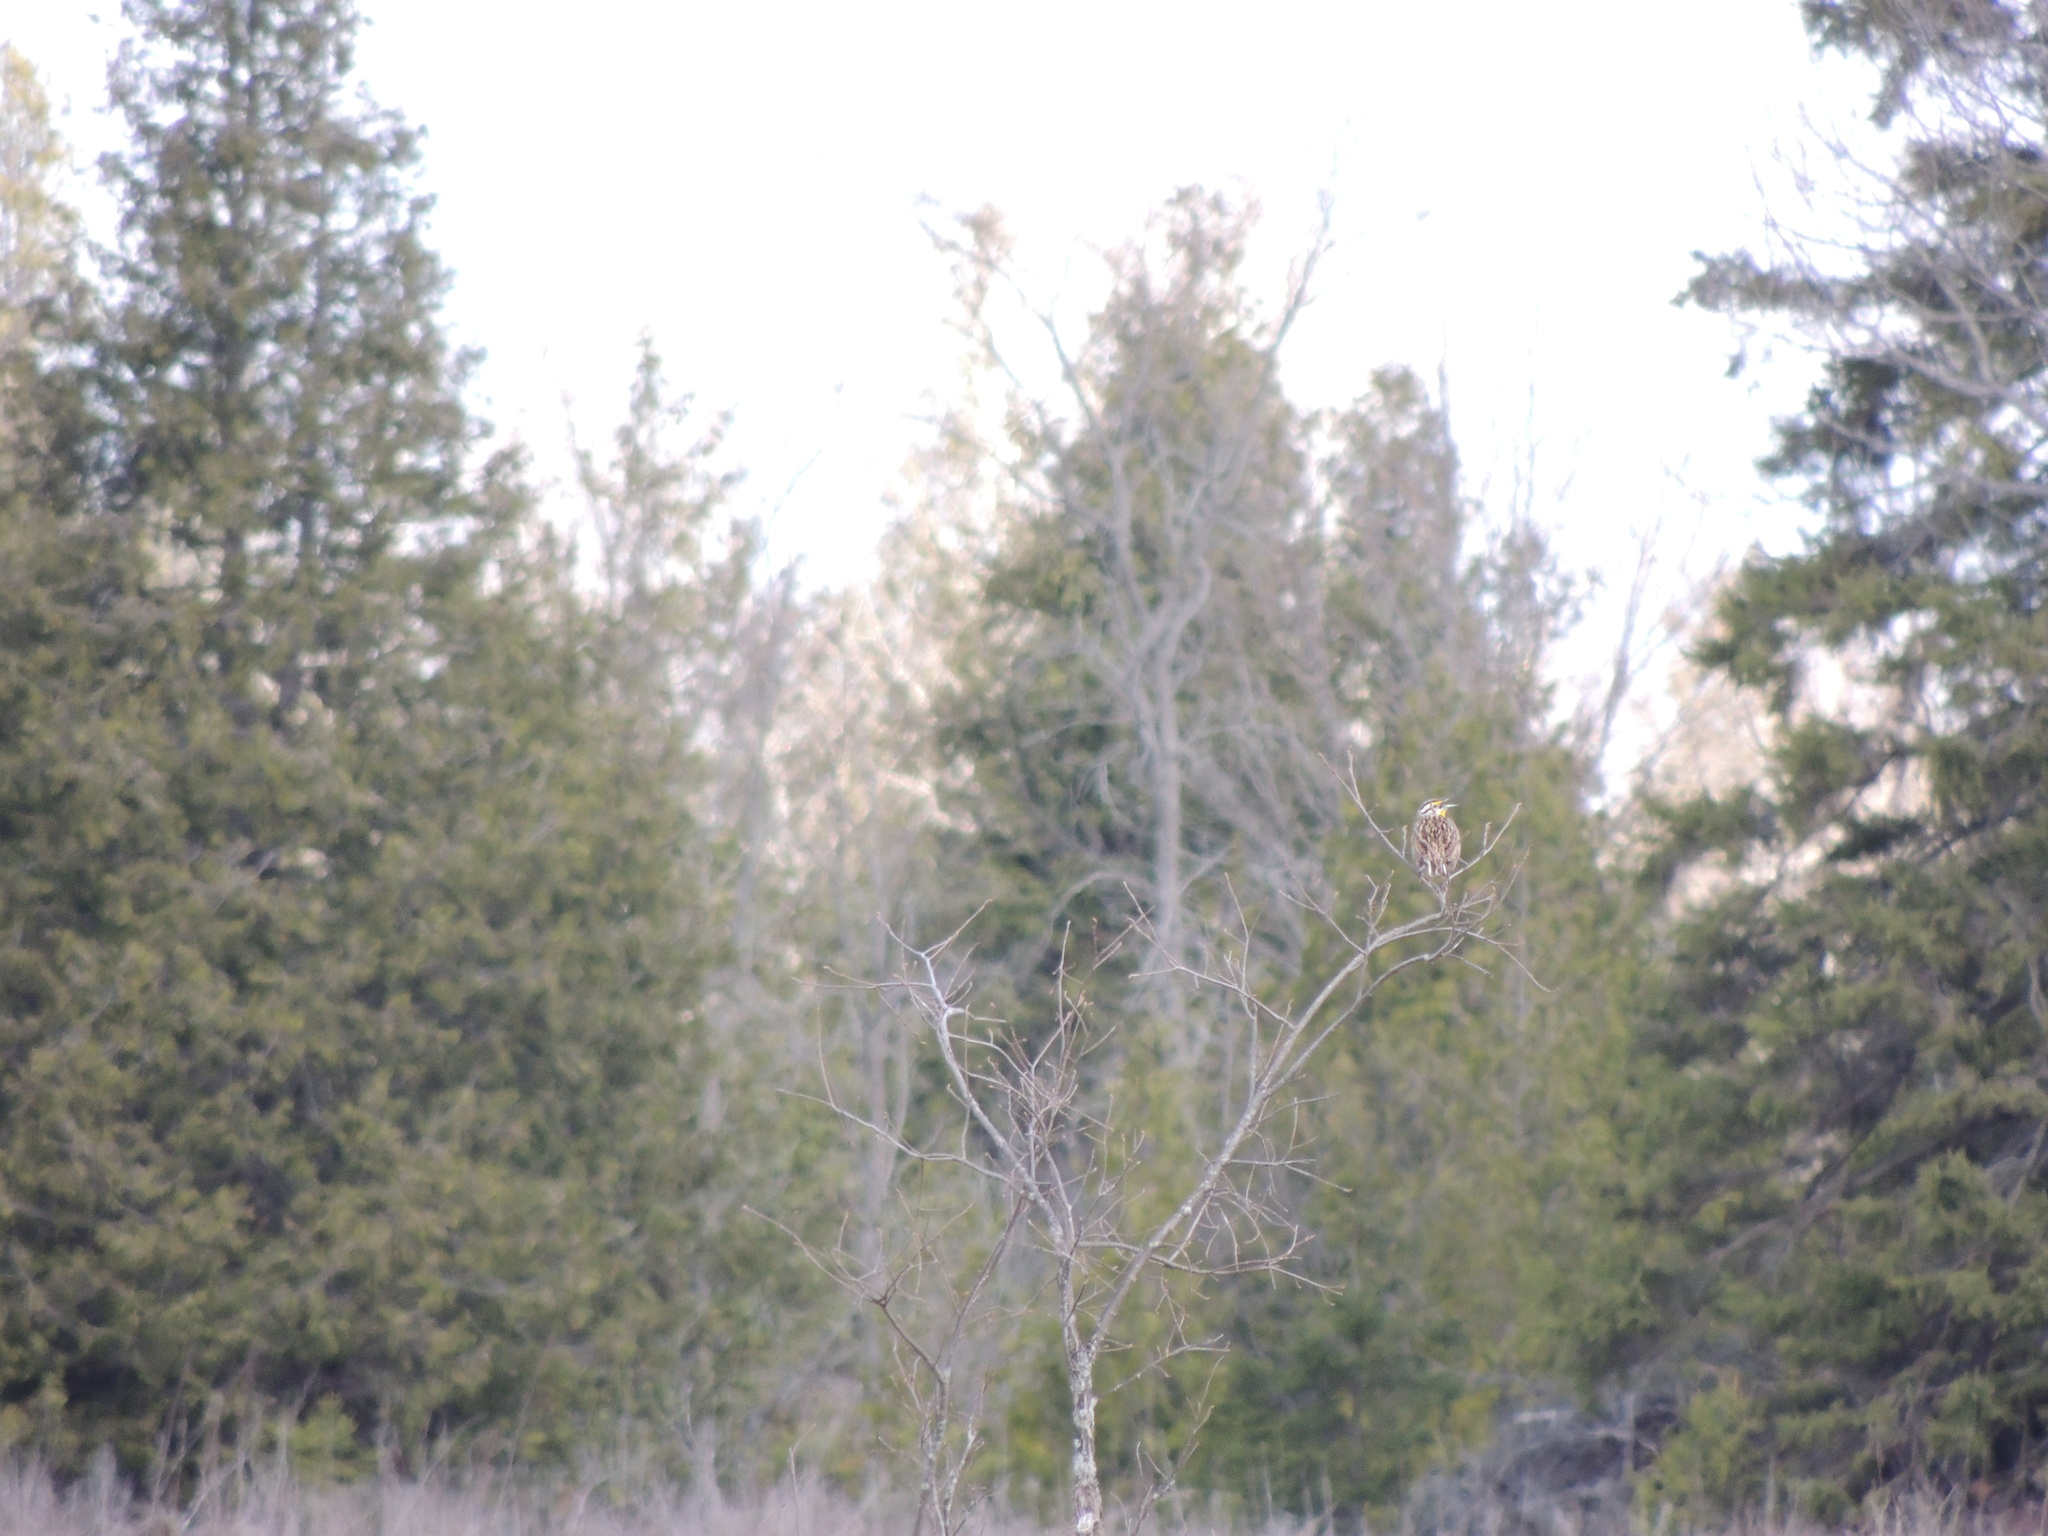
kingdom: Animalia
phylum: Chordata
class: Aves
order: Passeriformes
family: Icteridae
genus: Sturnella
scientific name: Sturnella magna
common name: Eastern meadowlark
